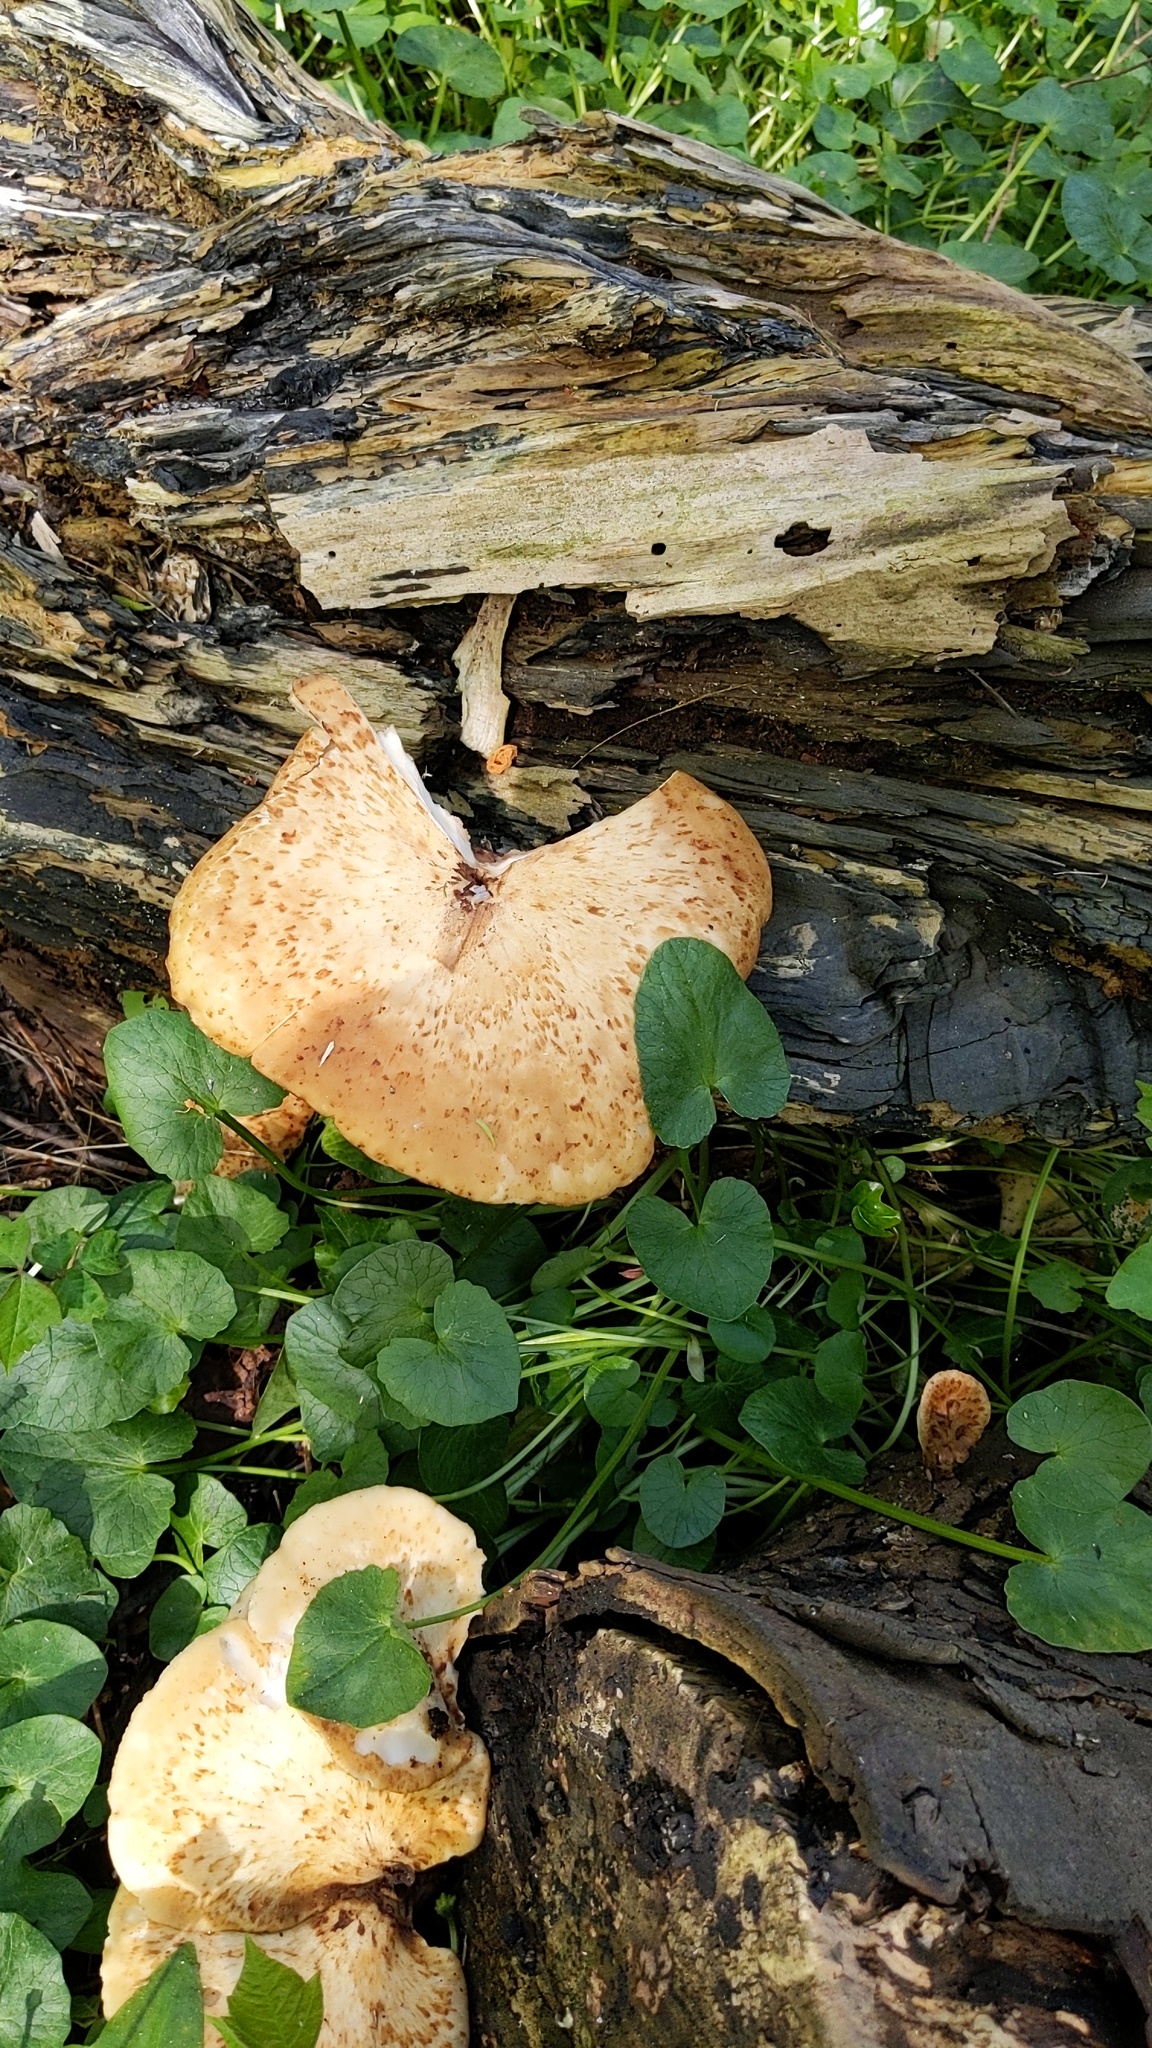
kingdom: Fungi
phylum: Basidiomycota
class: Agaricomycetes
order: Polyporales
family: Polyporaceae
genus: Cerioporus
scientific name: Cerioporus squamosus
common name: Dryad's saddle
